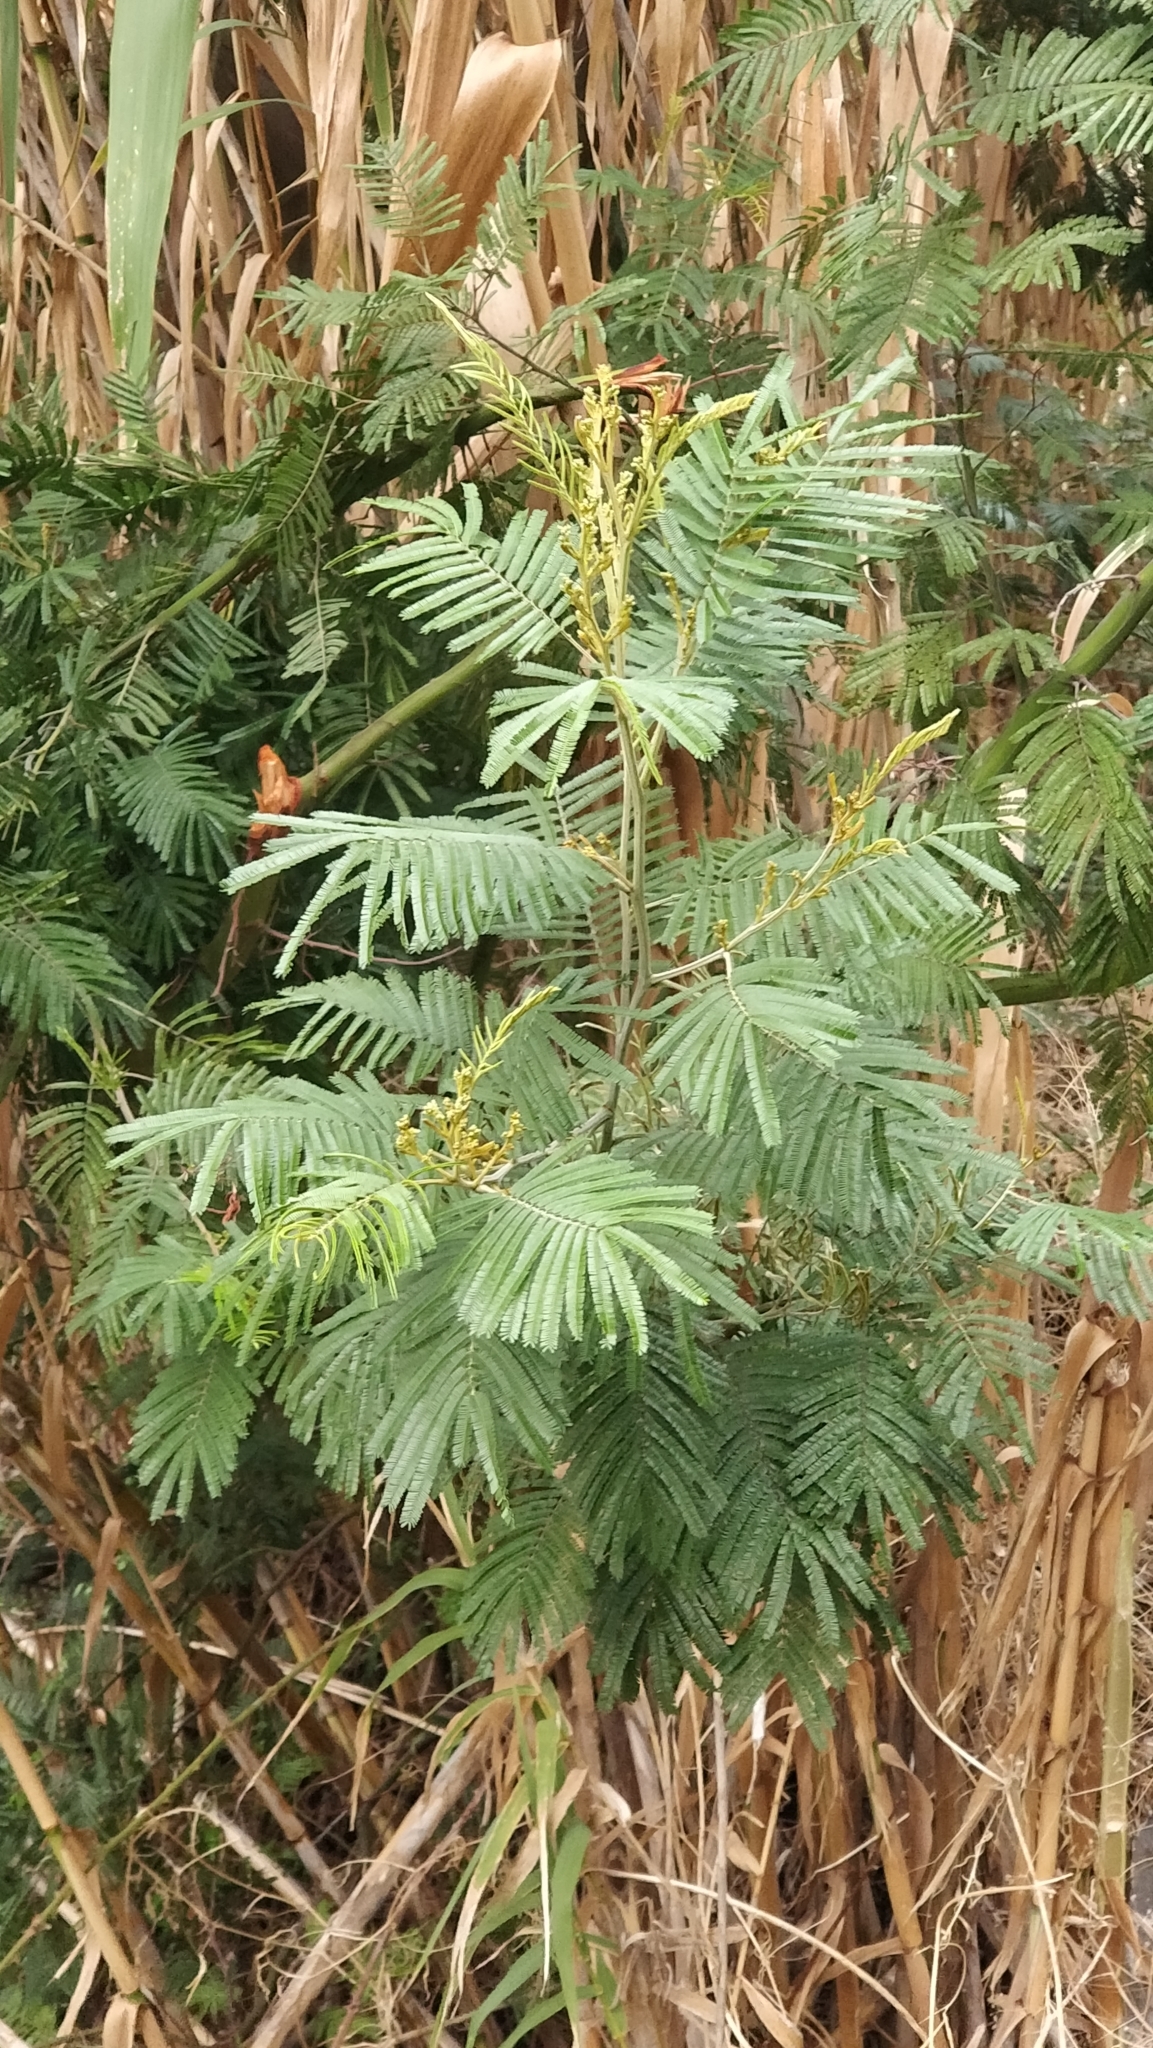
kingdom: Plantae
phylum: Tracheophyta
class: Magnoliopsida
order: Fabales
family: Fabaceae
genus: Acacia
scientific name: Acacia mearnsii
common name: Black wattle
